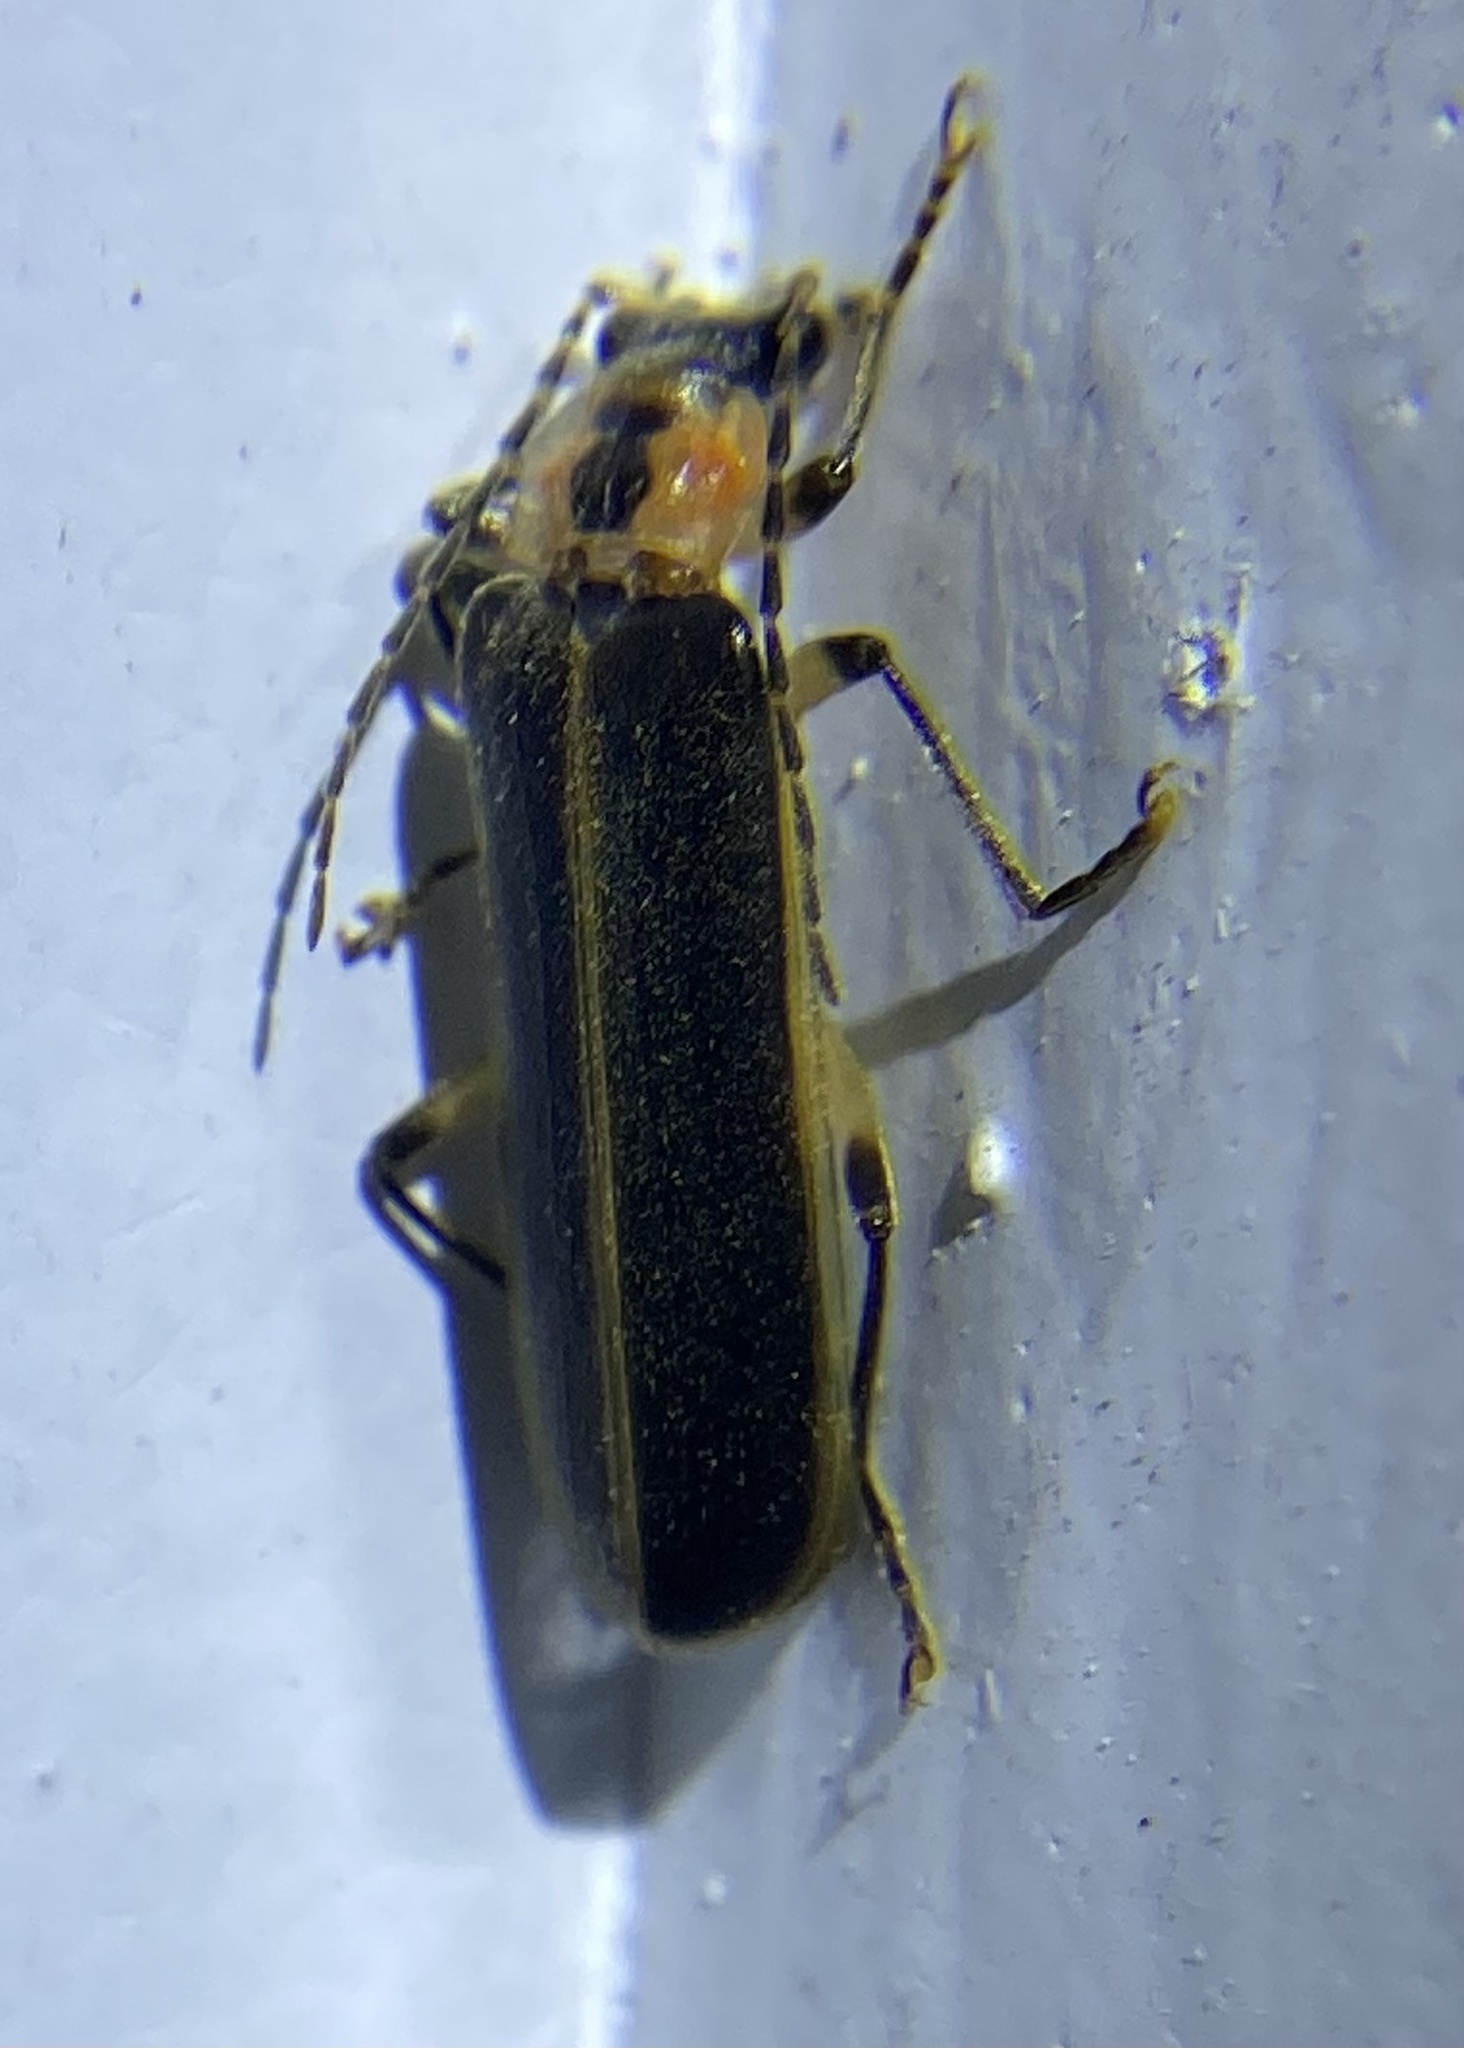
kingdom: Animalia
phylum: Arthropoda
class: Insecta
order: Coleoptera
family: Cantharidae
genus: Podabrus
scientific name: Podabrus basilaris
